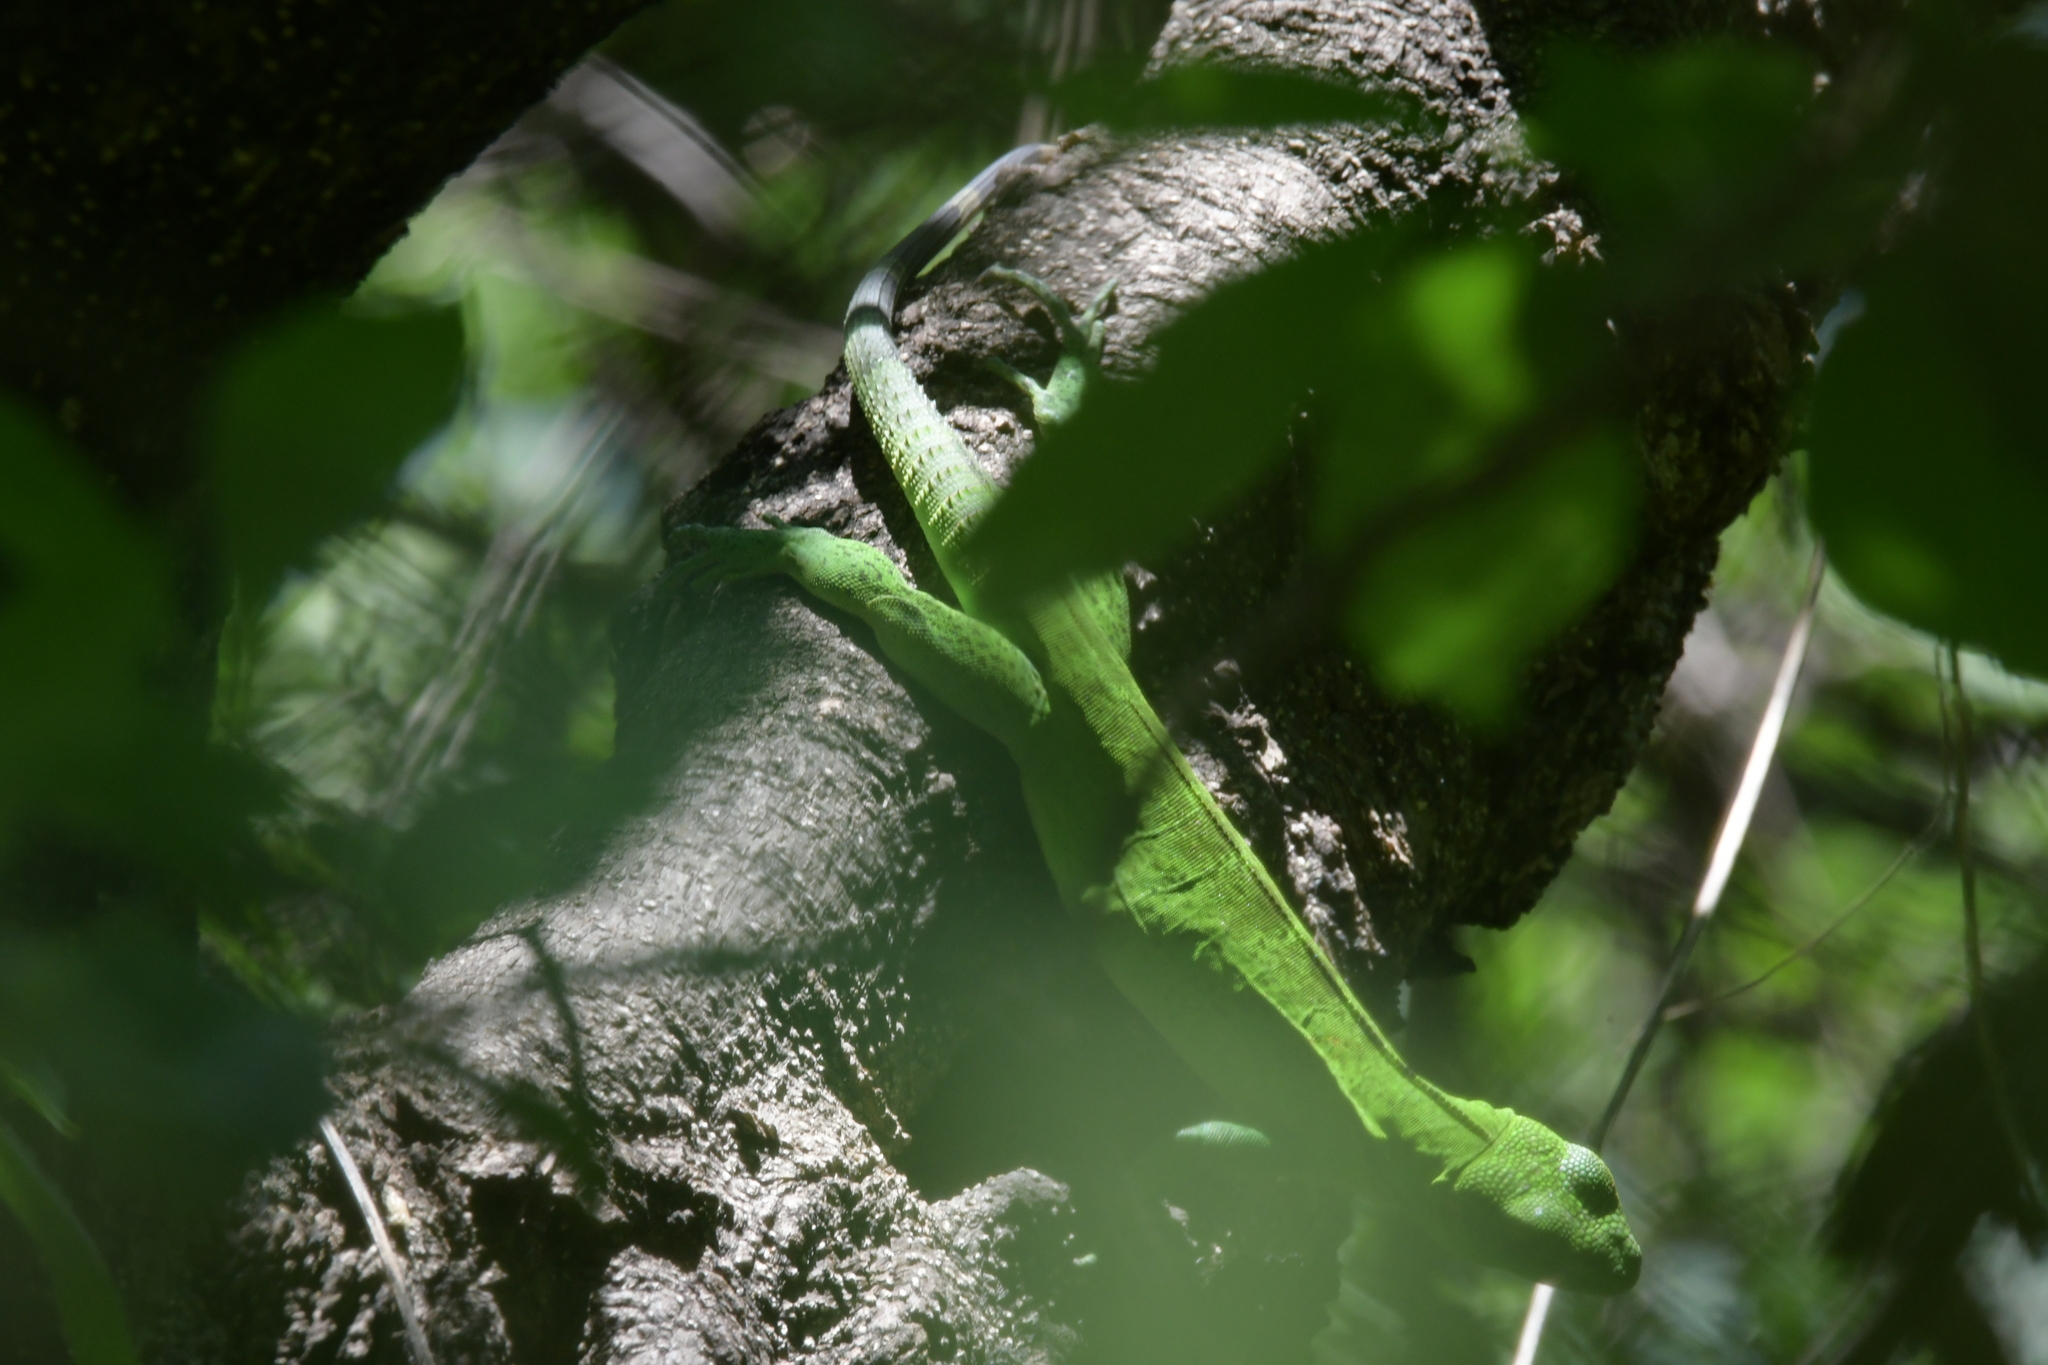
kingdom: Animalia
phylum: Chordata
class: Squamata
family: Iguanidae
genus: Ctenosaura
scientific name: Ctenosaura pectinata
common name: Guerreran spiny-tailed iguana
